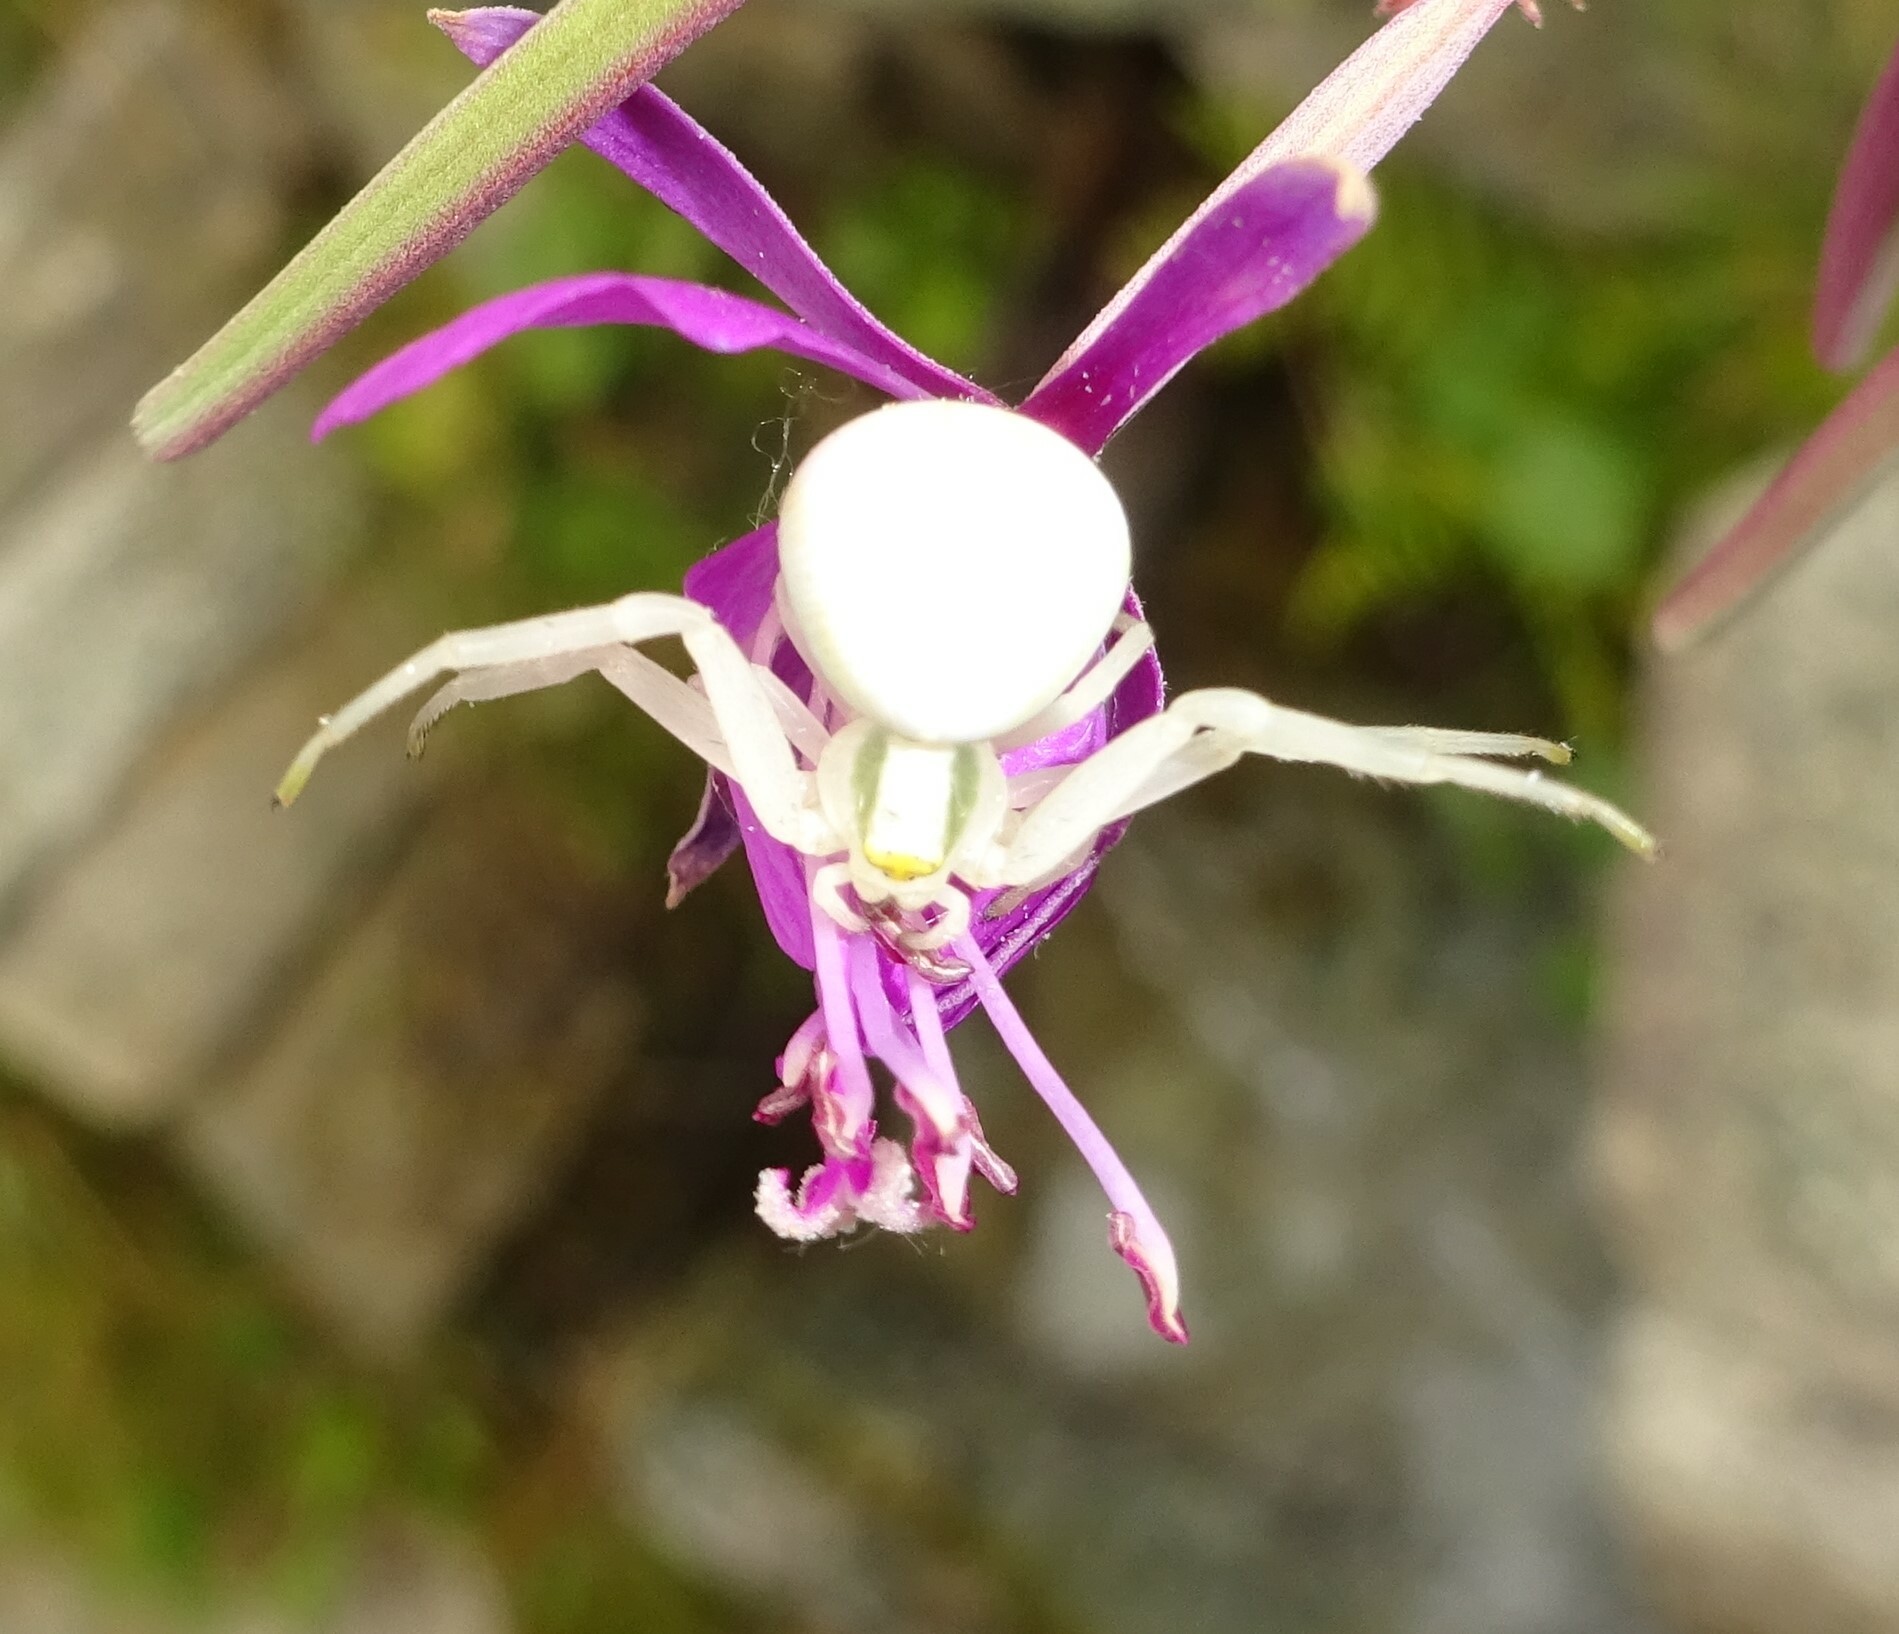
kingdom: Animalia
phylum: Arthropoda
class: Arachnida
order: Araneae
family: Thomisidae
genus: Misumena
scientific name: Misumena vatia
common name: Goldenrod crab spider
